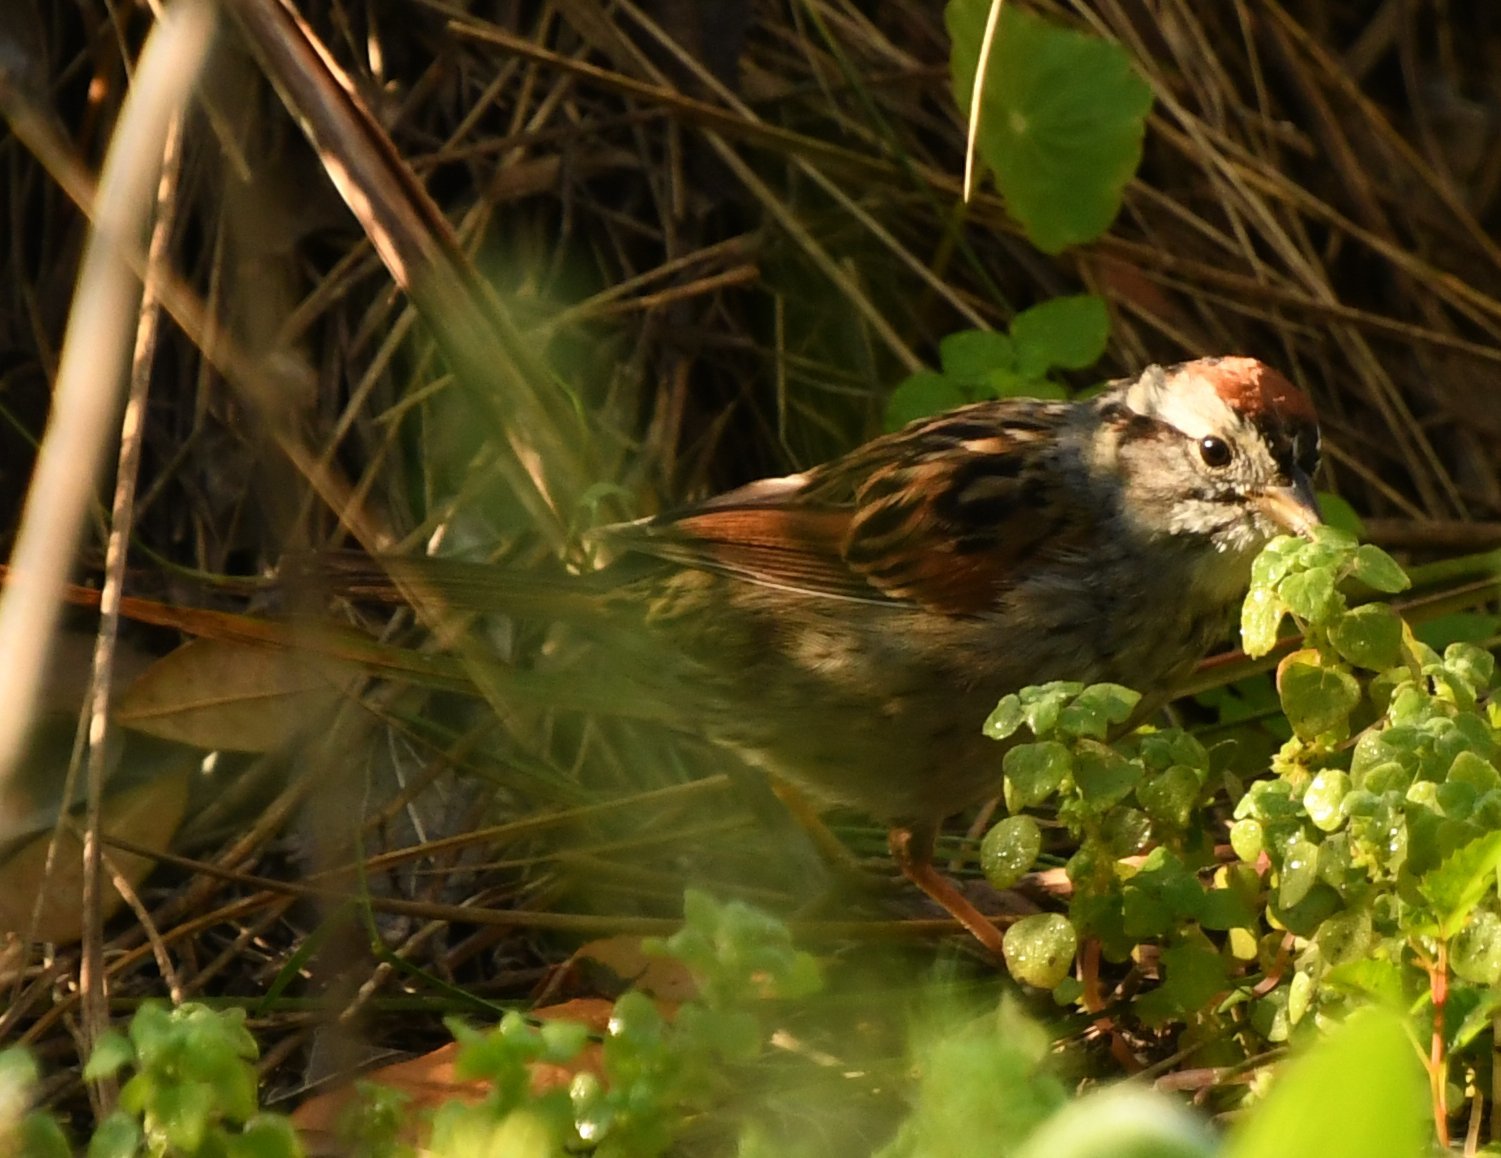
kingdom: Animalia
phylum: Chordata
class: Aves
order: Passeriformes
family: Passerellidae
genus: Melospiza
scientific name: Melospiza georgiana
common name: Swamp sparrow
